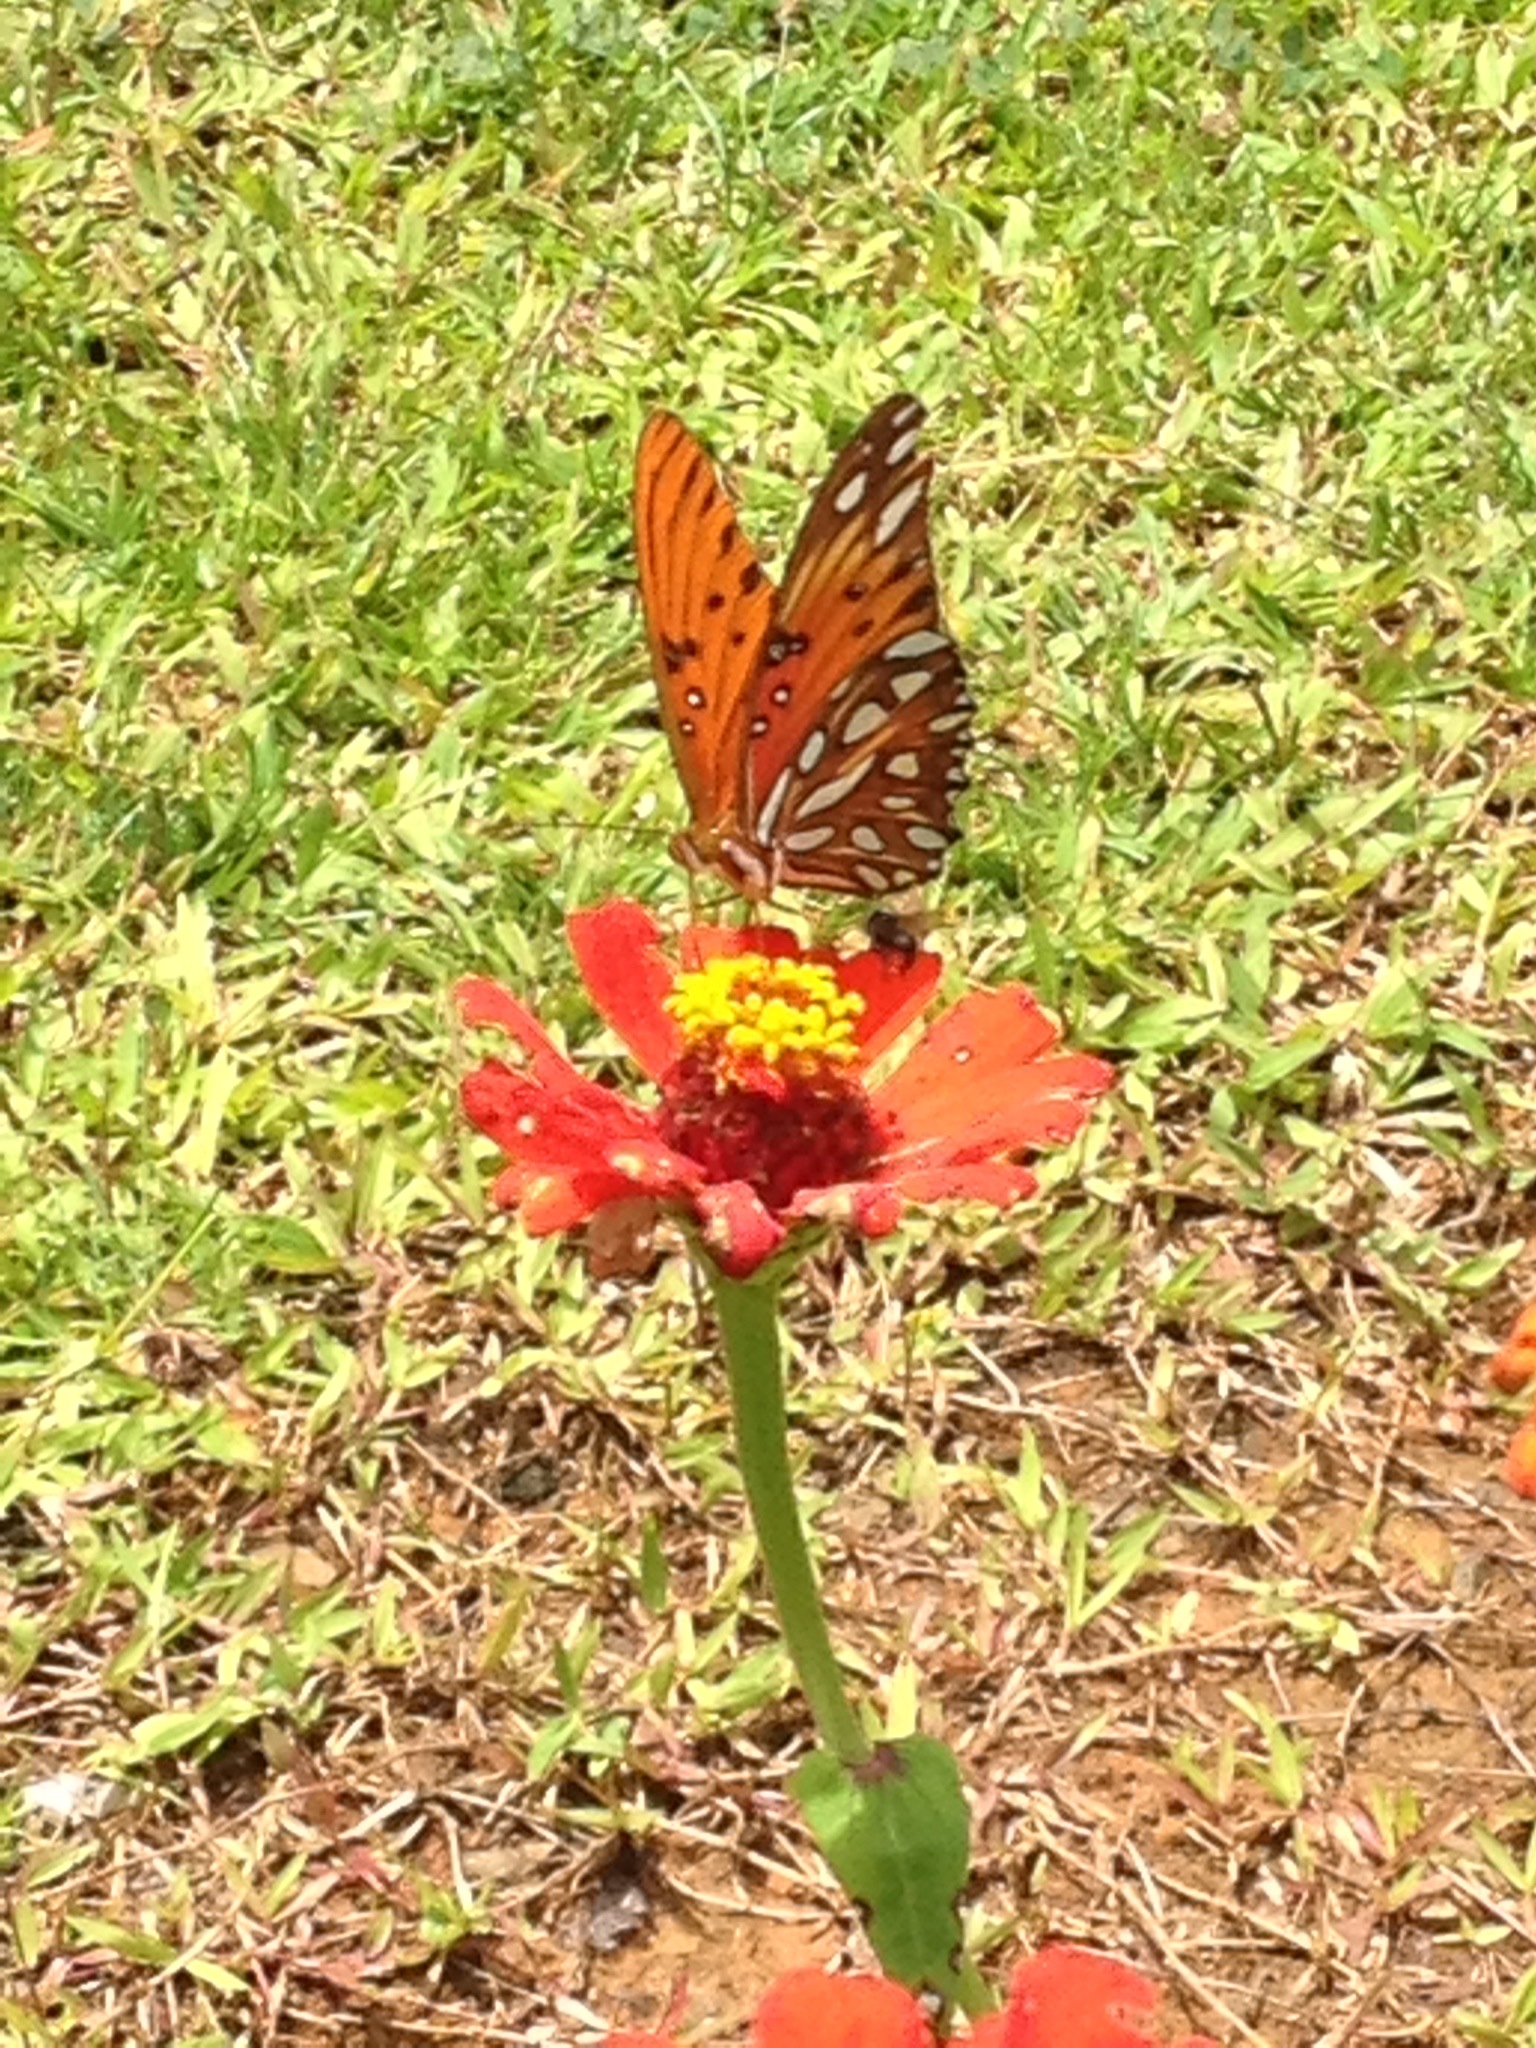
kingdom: Animalia
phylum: Arthropoda
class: Insecta
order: Lepidoptera
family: Nymphalidae
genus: Dione
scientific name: Dione vanillae
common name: Gulf fritillary
